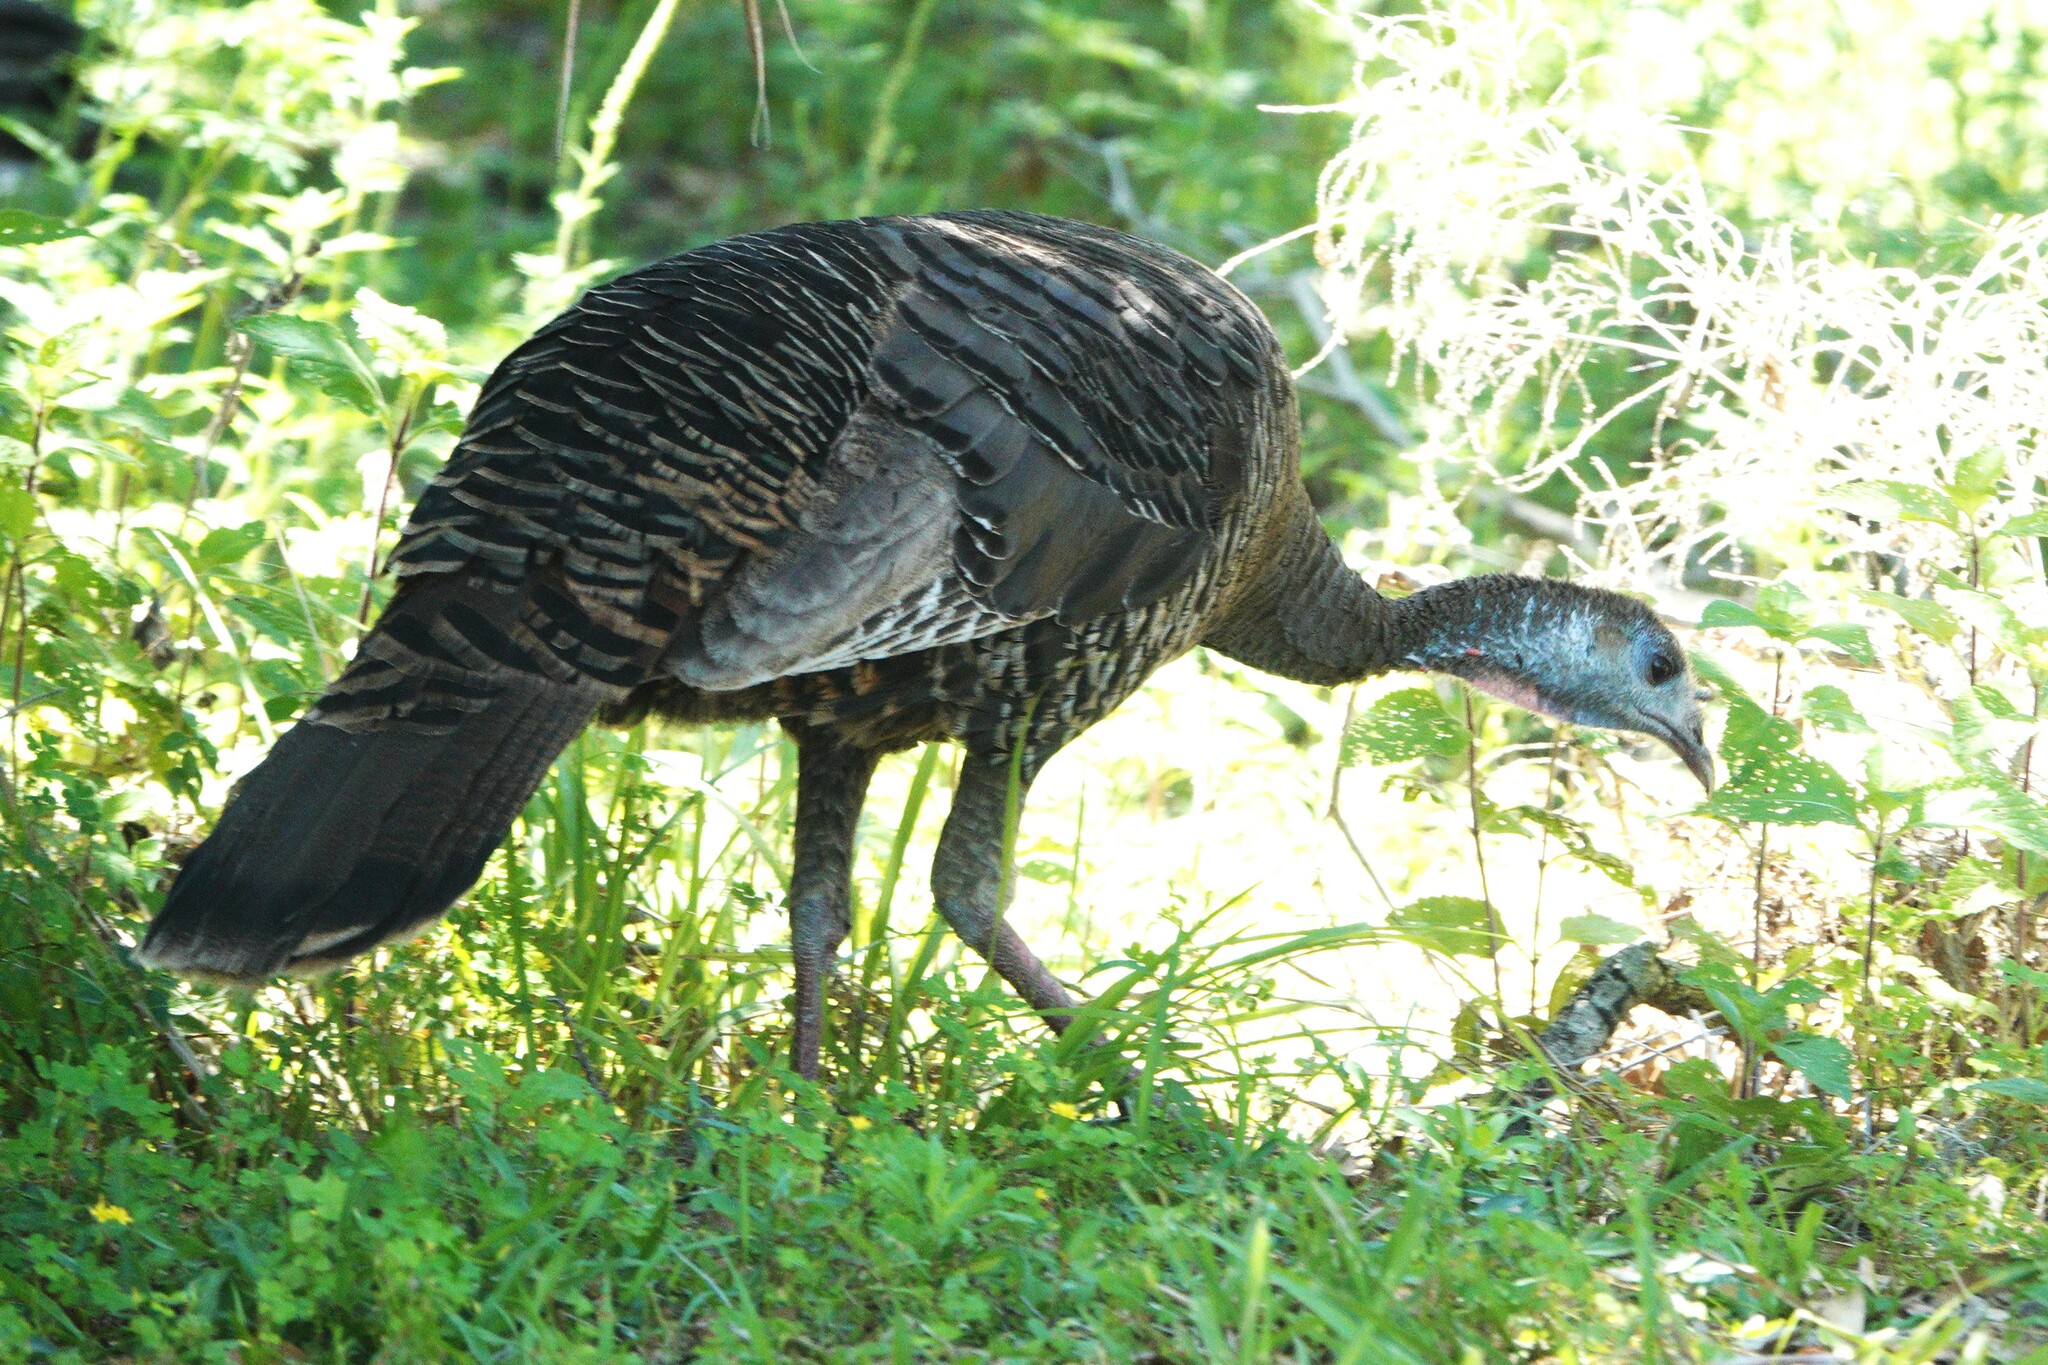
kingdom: Animalia
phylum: Chordata
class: Aves
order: Galliformes
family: Phasianidae
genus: Meleagris
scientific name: Meleagris gallopavo
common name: Wild turkey
